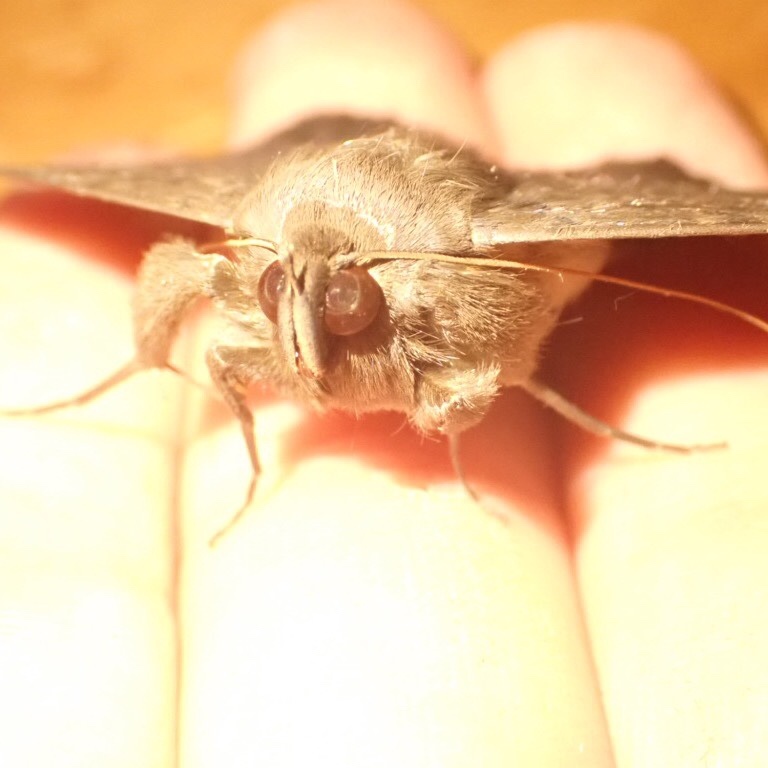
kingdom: Animalia
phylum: Arthropoda
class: Insecta
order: Lepidoptera
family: Erebidae
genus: Dasypodia
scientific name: Dasypodia cymatodes
